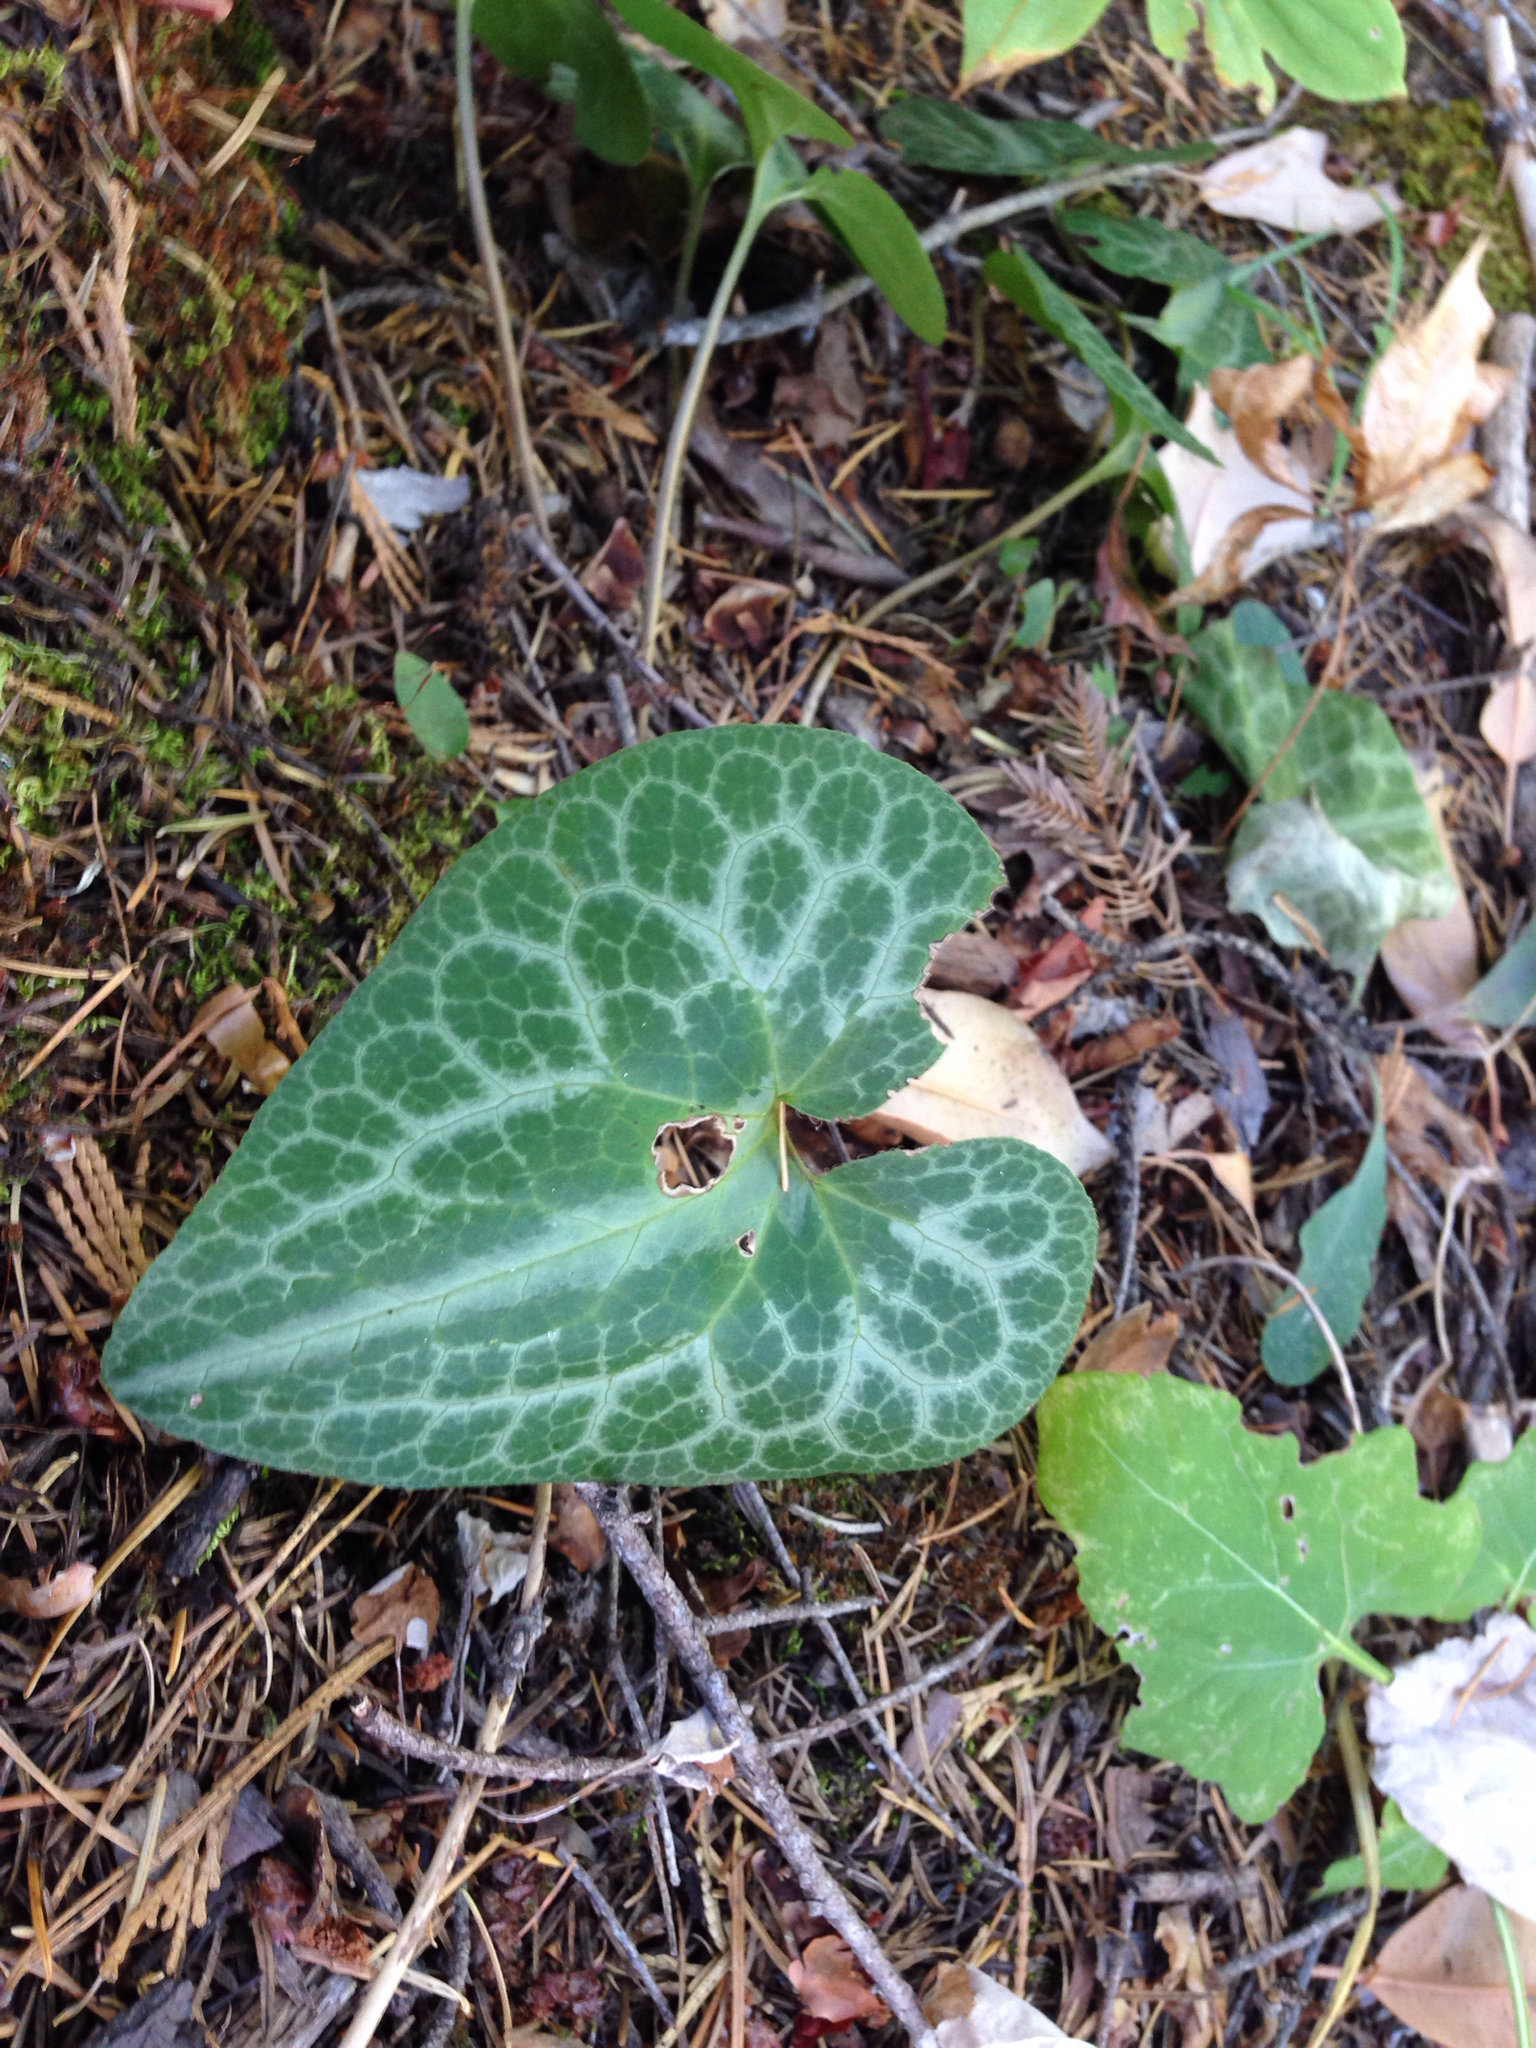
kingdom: Plantae
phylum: Tracheophyta
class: Magnoliopsida
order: Piperales
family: Aristolochiaceae
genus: Asarum
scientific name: Asarum hartwegii
